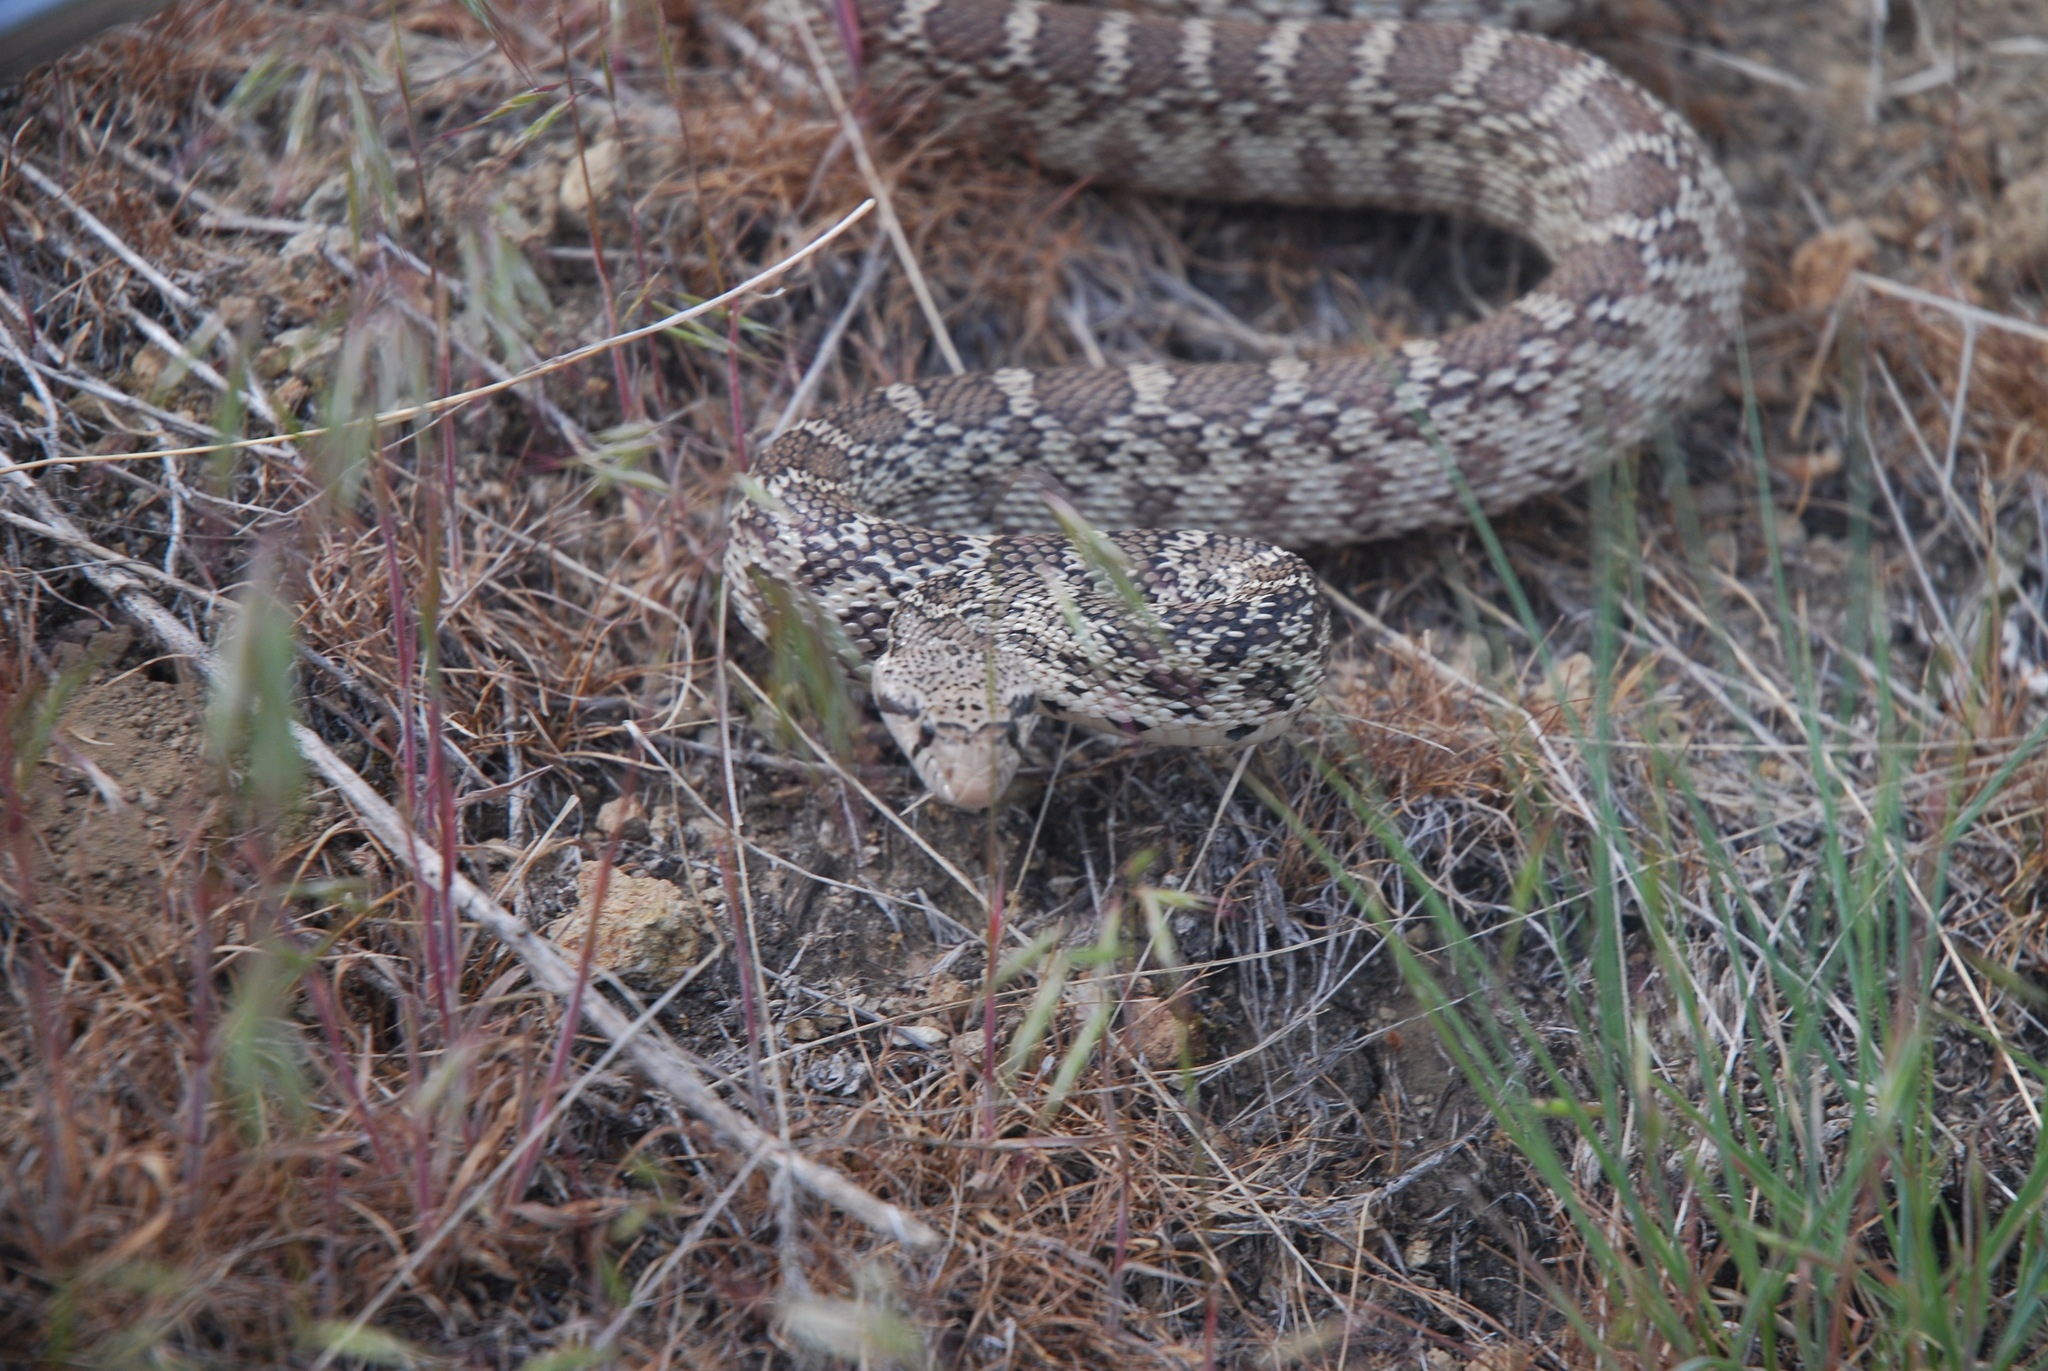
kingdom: Animalia
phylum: Chordata
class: Squamata
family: Colubridae
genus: Pituophis
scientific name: Pituophis catenifer
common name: Gopher snake
